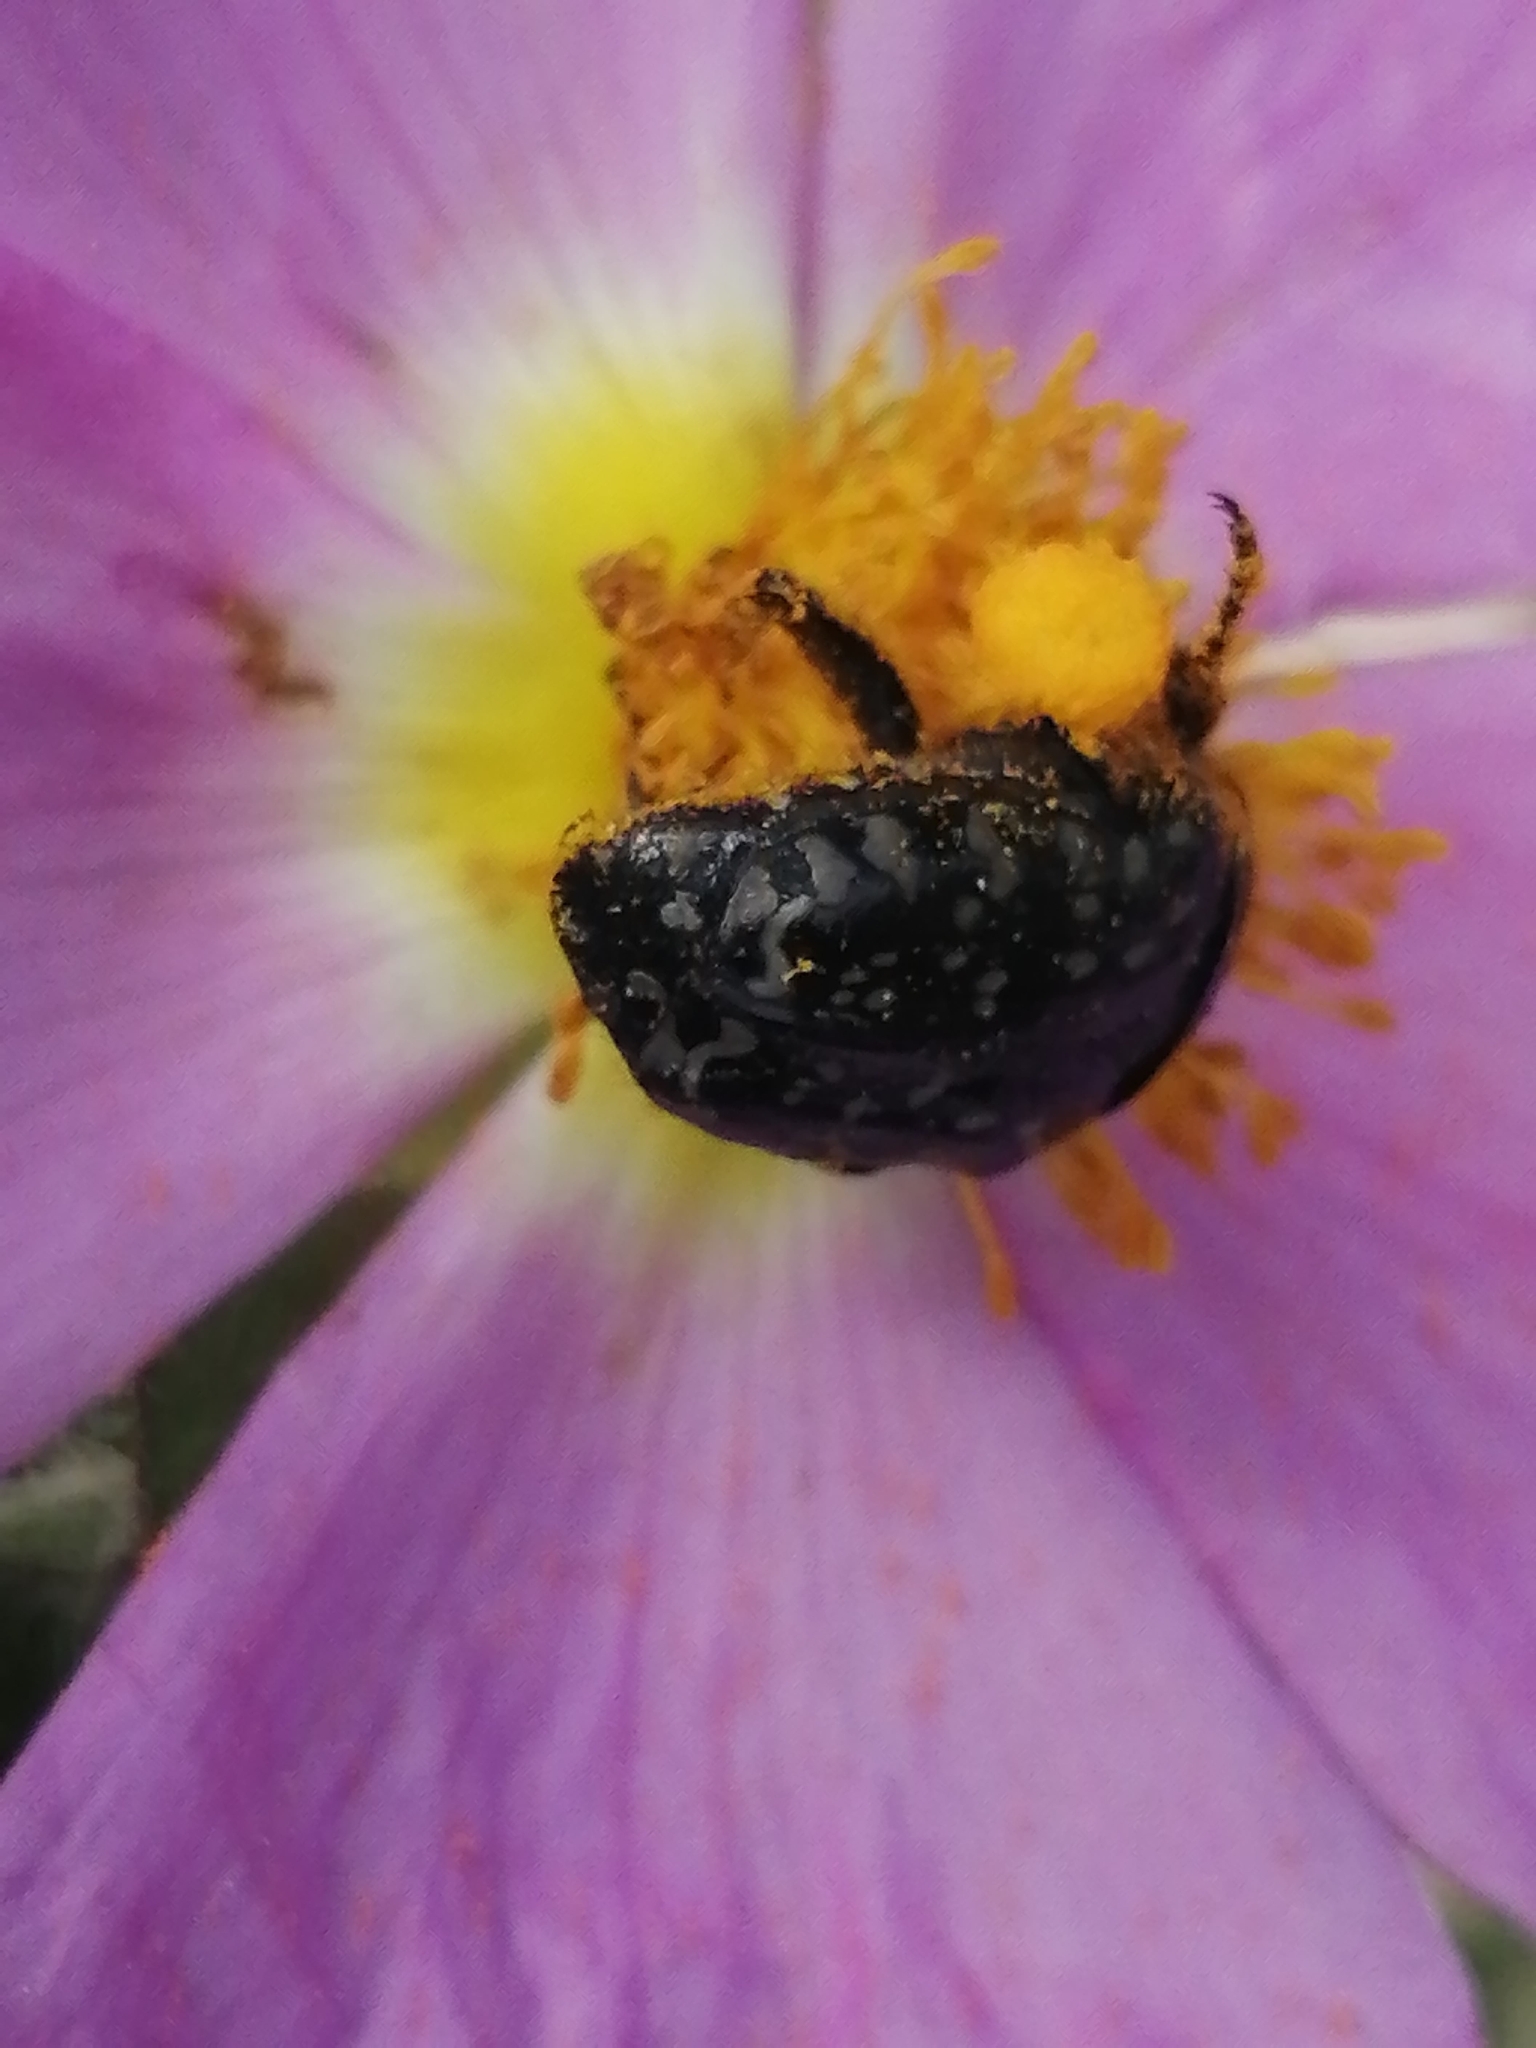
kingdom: Animalia
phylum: Arthropoda
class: Insecta
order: Coleoptera
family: Scarabaeidae
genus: Oxythyrea
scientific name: Oxythyrea noemi
